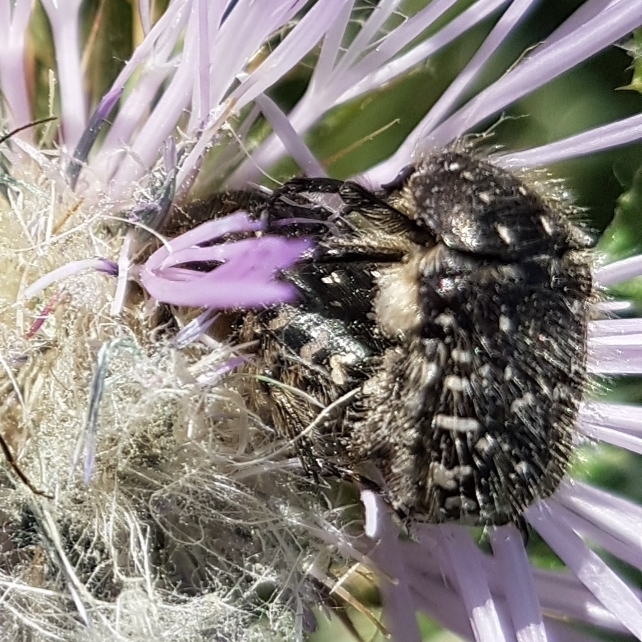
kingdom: Animalia
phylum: Arthropoda
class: Insecta
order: Coleoptera
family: Scarabaeidae
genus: Oxythyrea
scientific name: Oxythyrea funesta
